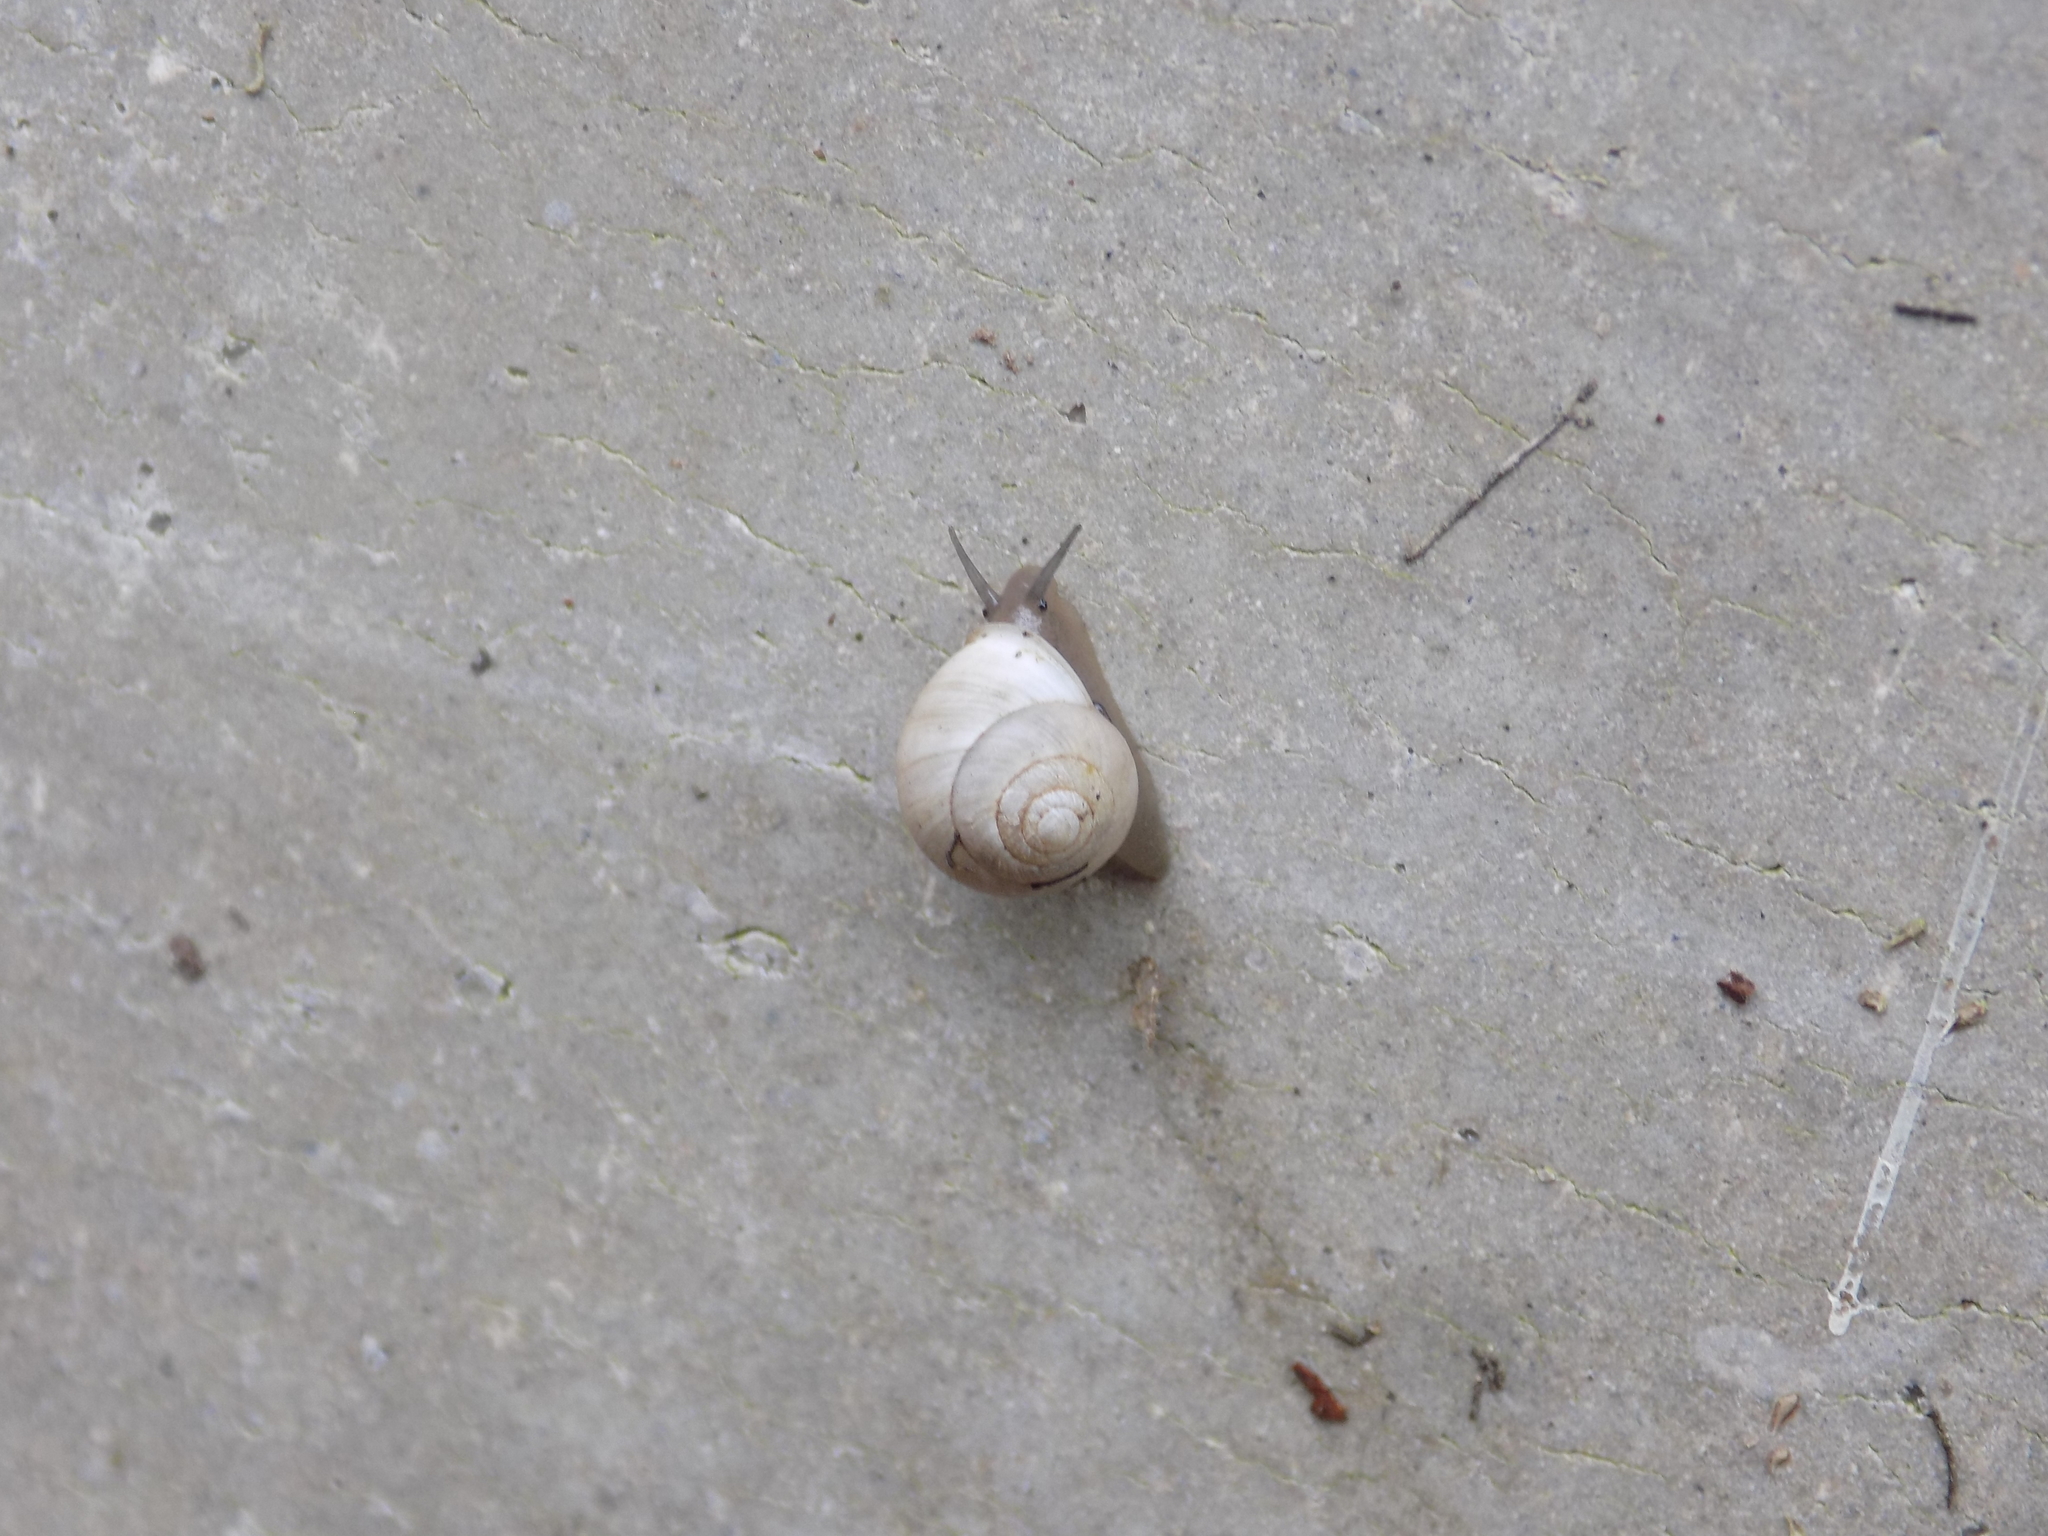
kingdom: Animalia
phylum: Mollusca
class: Gastropoda
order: Cycloneritida
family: Helicinidae
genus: Helicina
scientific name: Helicina orbiculata
